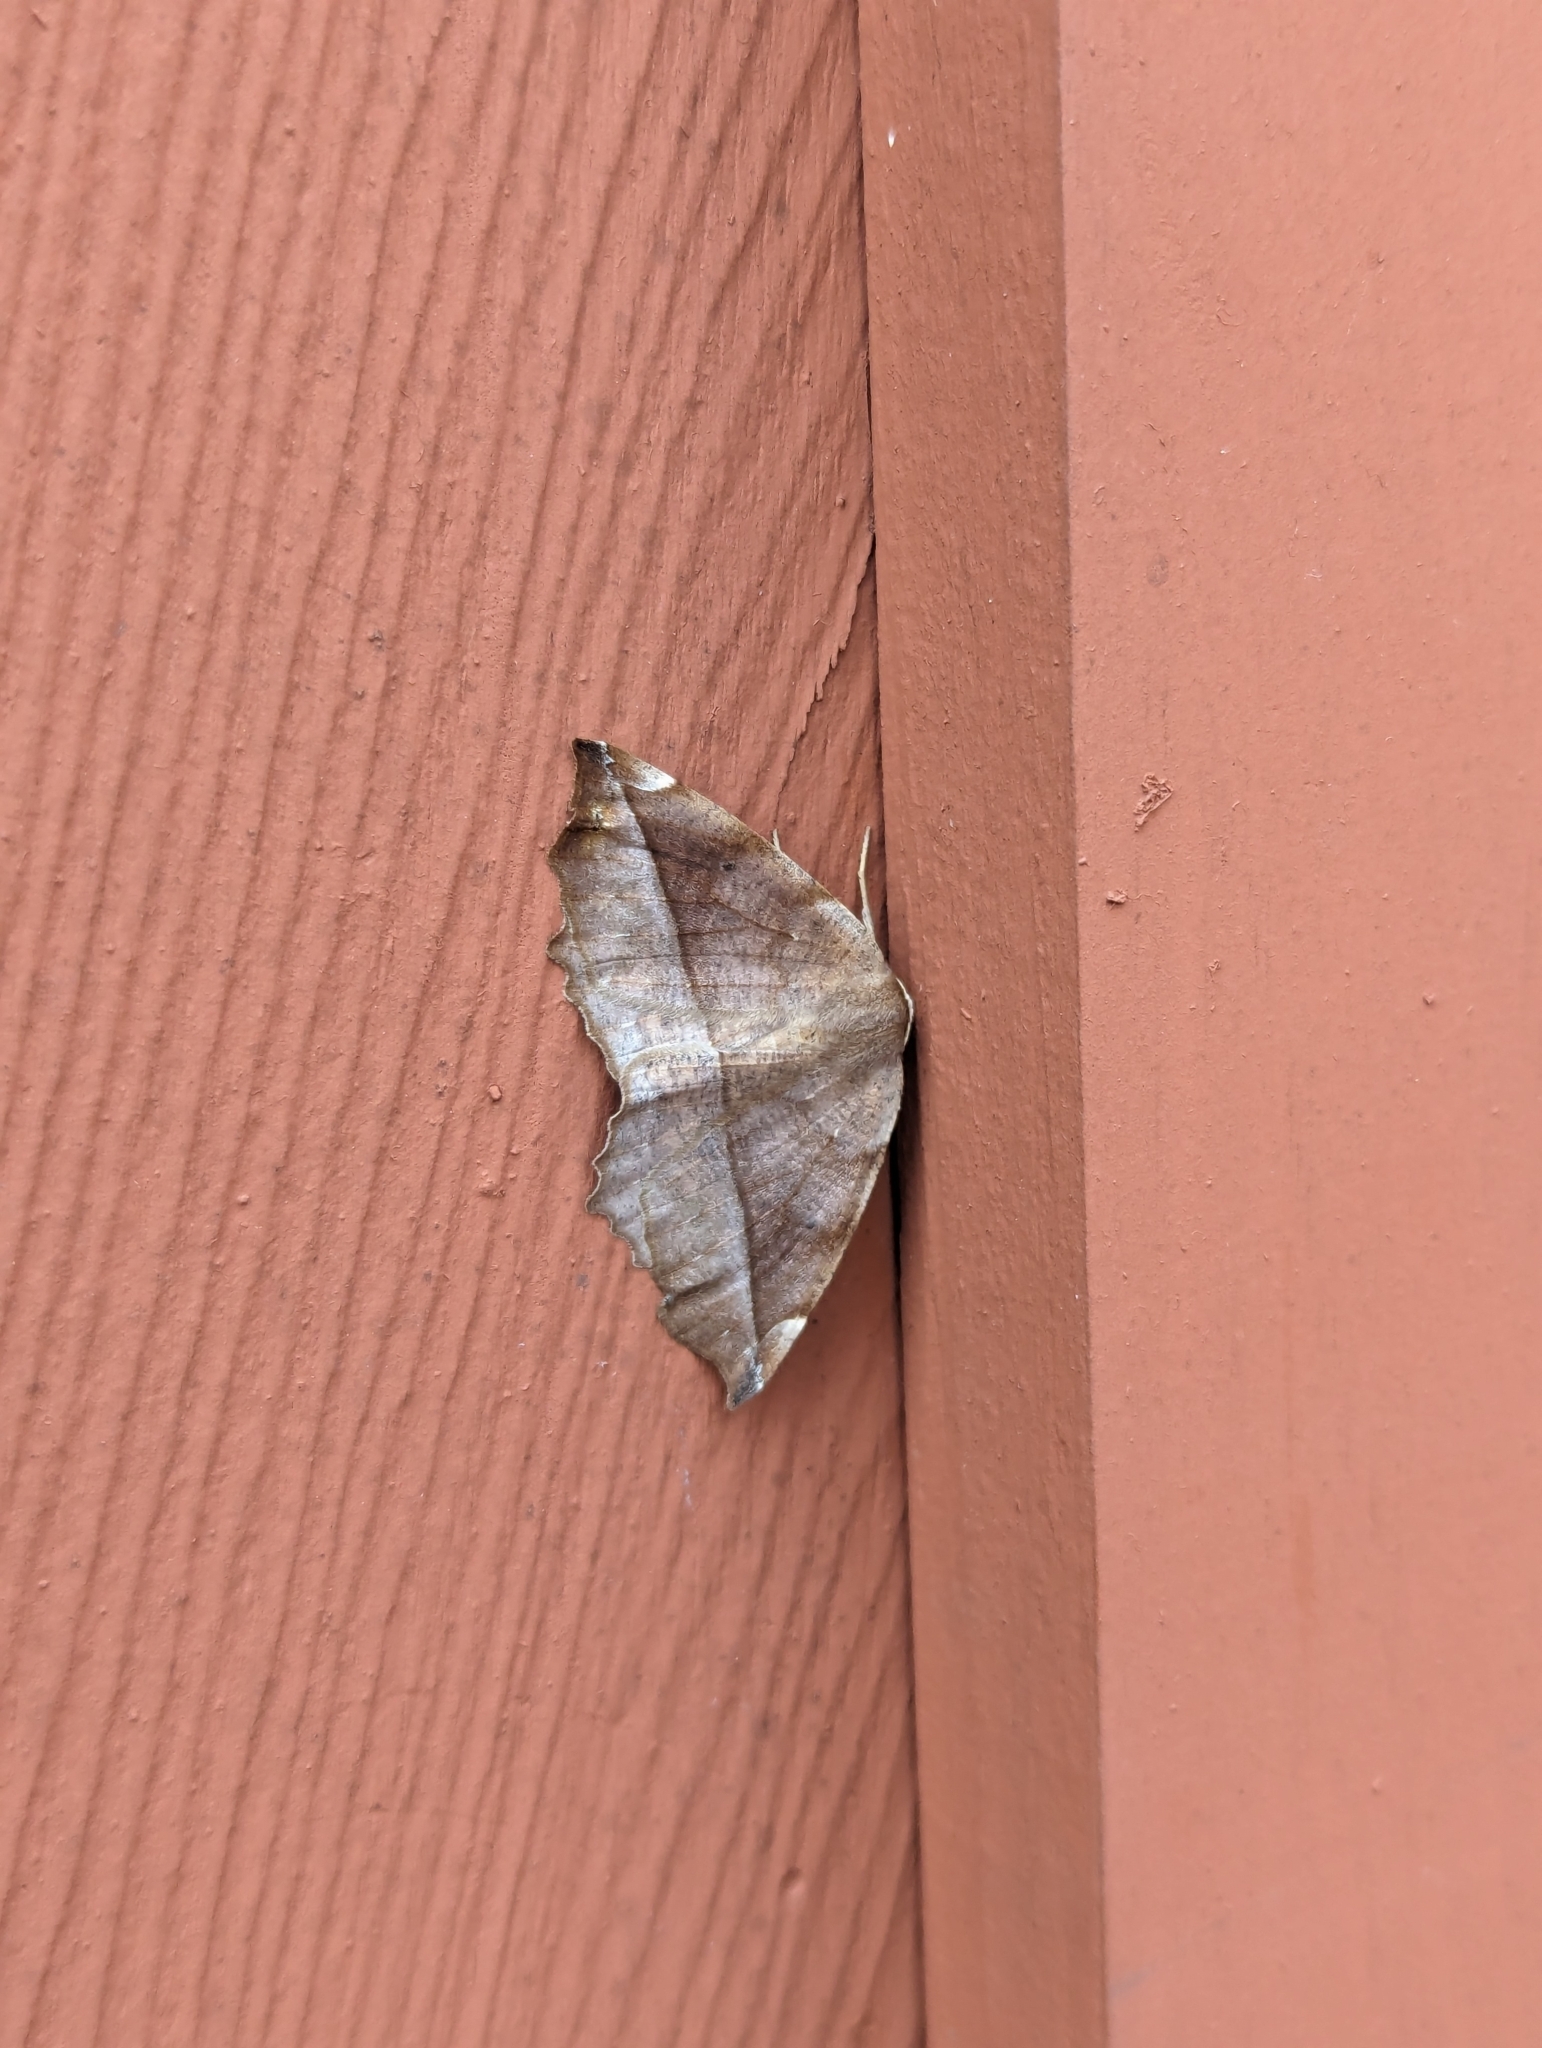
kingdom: Animalia
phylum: Arthropoda
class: Insecta
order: Lepidoptera
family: Geometridae
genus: Eutrapela
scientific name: Eutrapela clemataria
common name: Curved-toothed geometer
